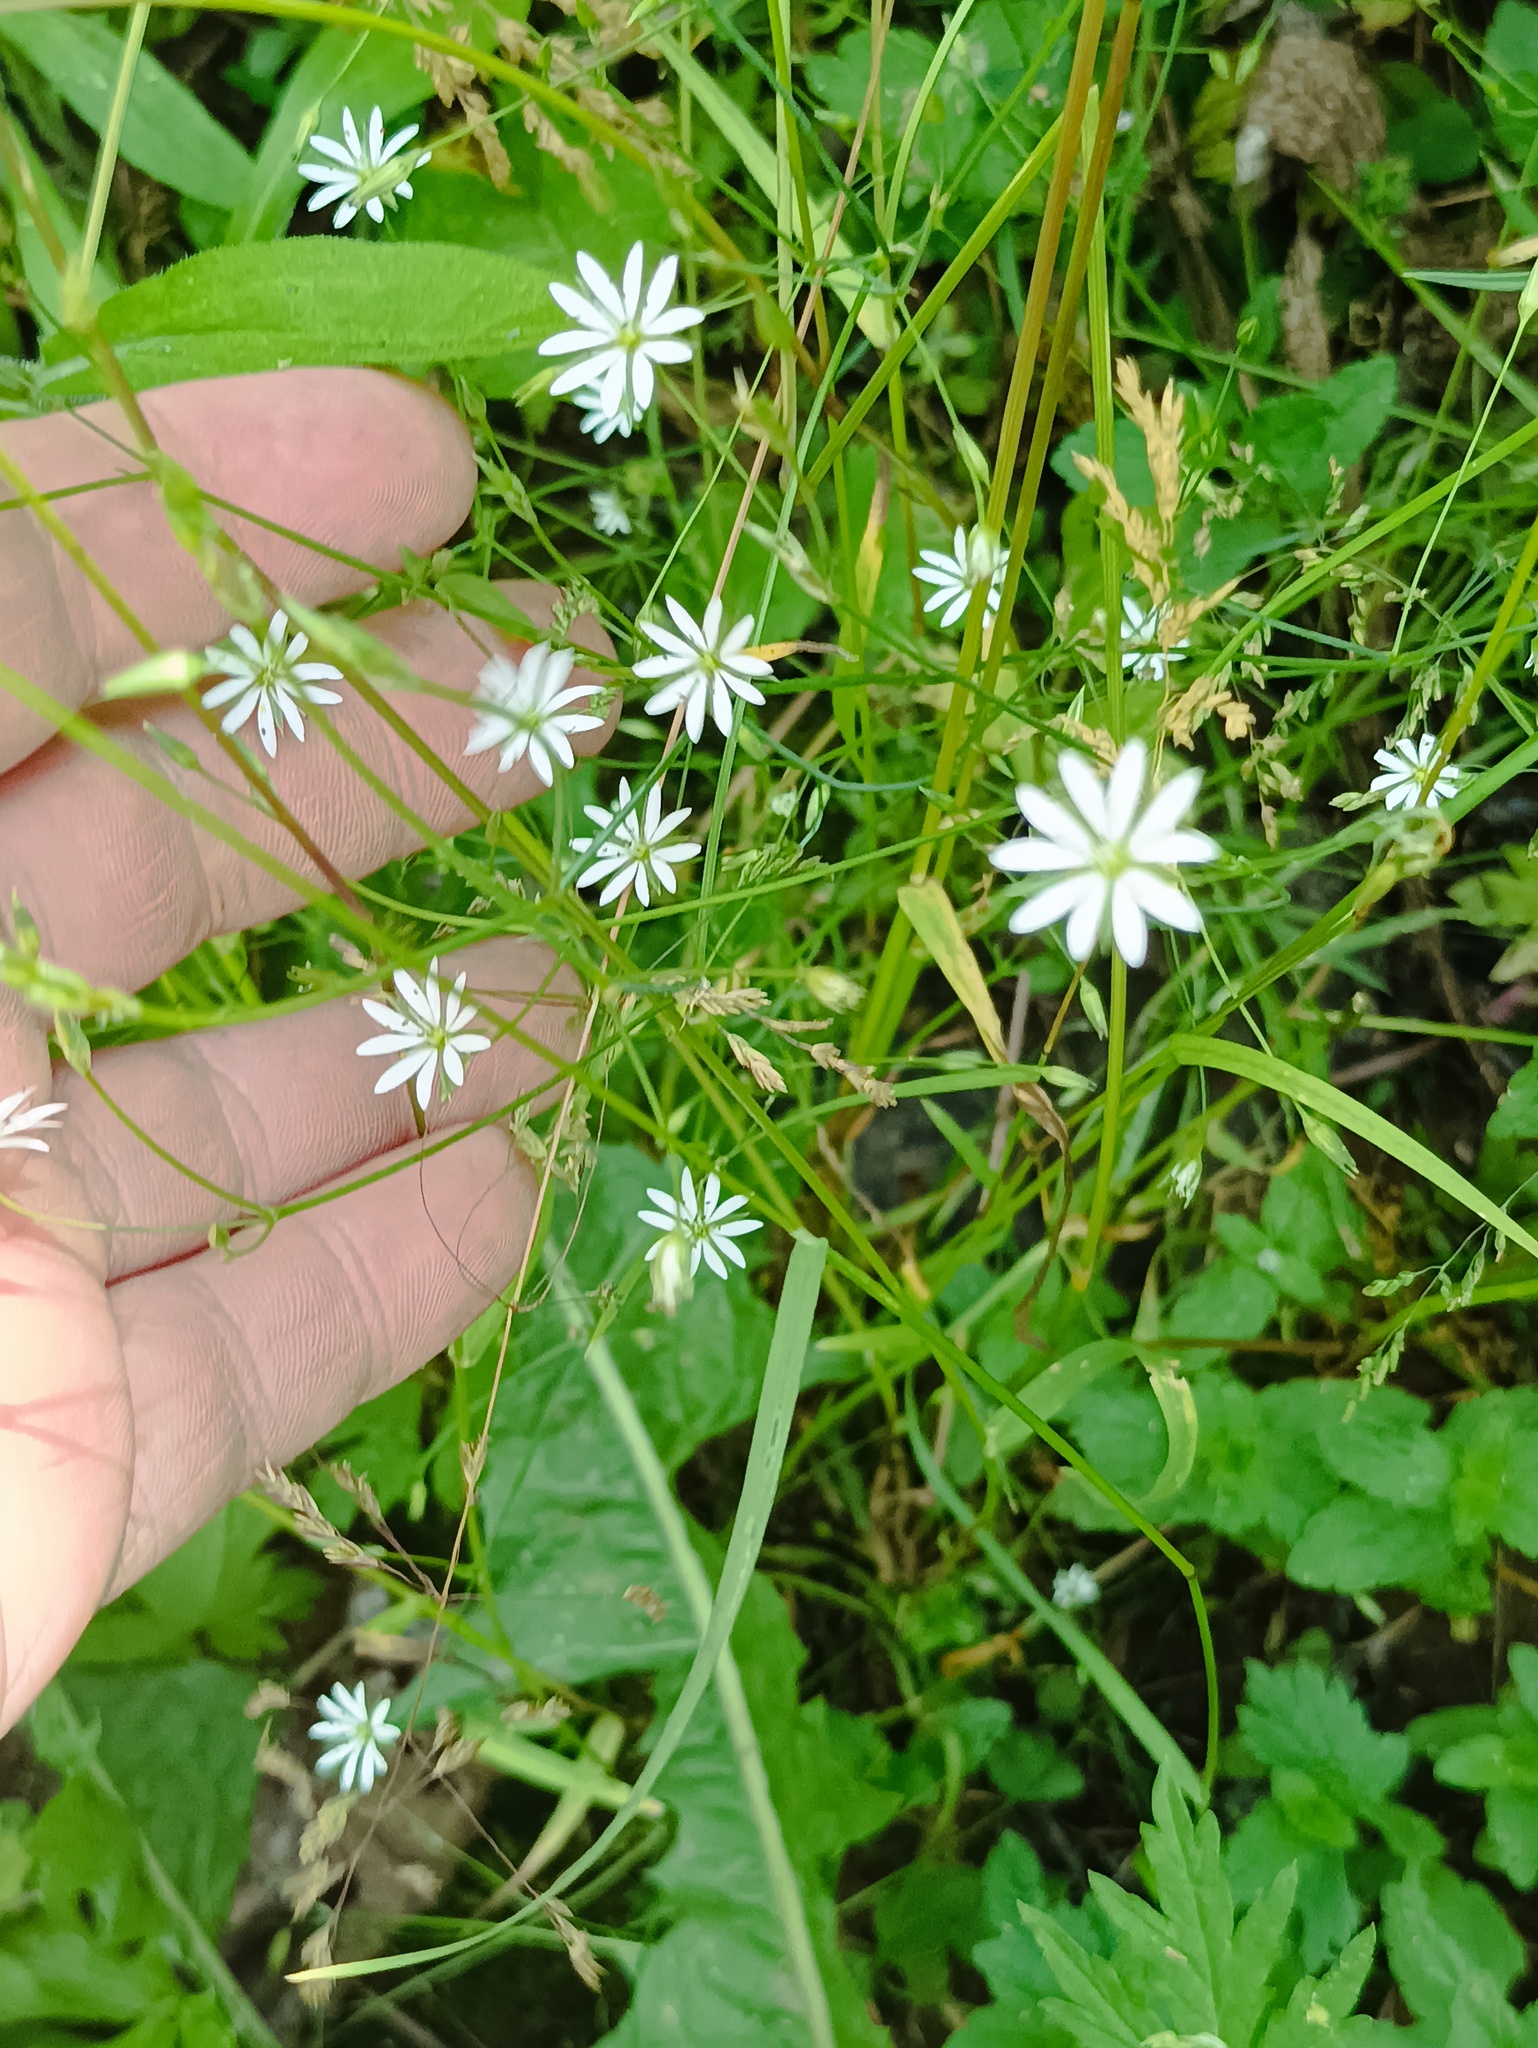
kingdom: Plantae
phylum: Tracheophyta
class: Magnoliopsida
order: Caryophyllales
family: Caryophyllaceae
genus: Stellaria
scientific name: Stellaria graminea
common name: Grass-like starwort
